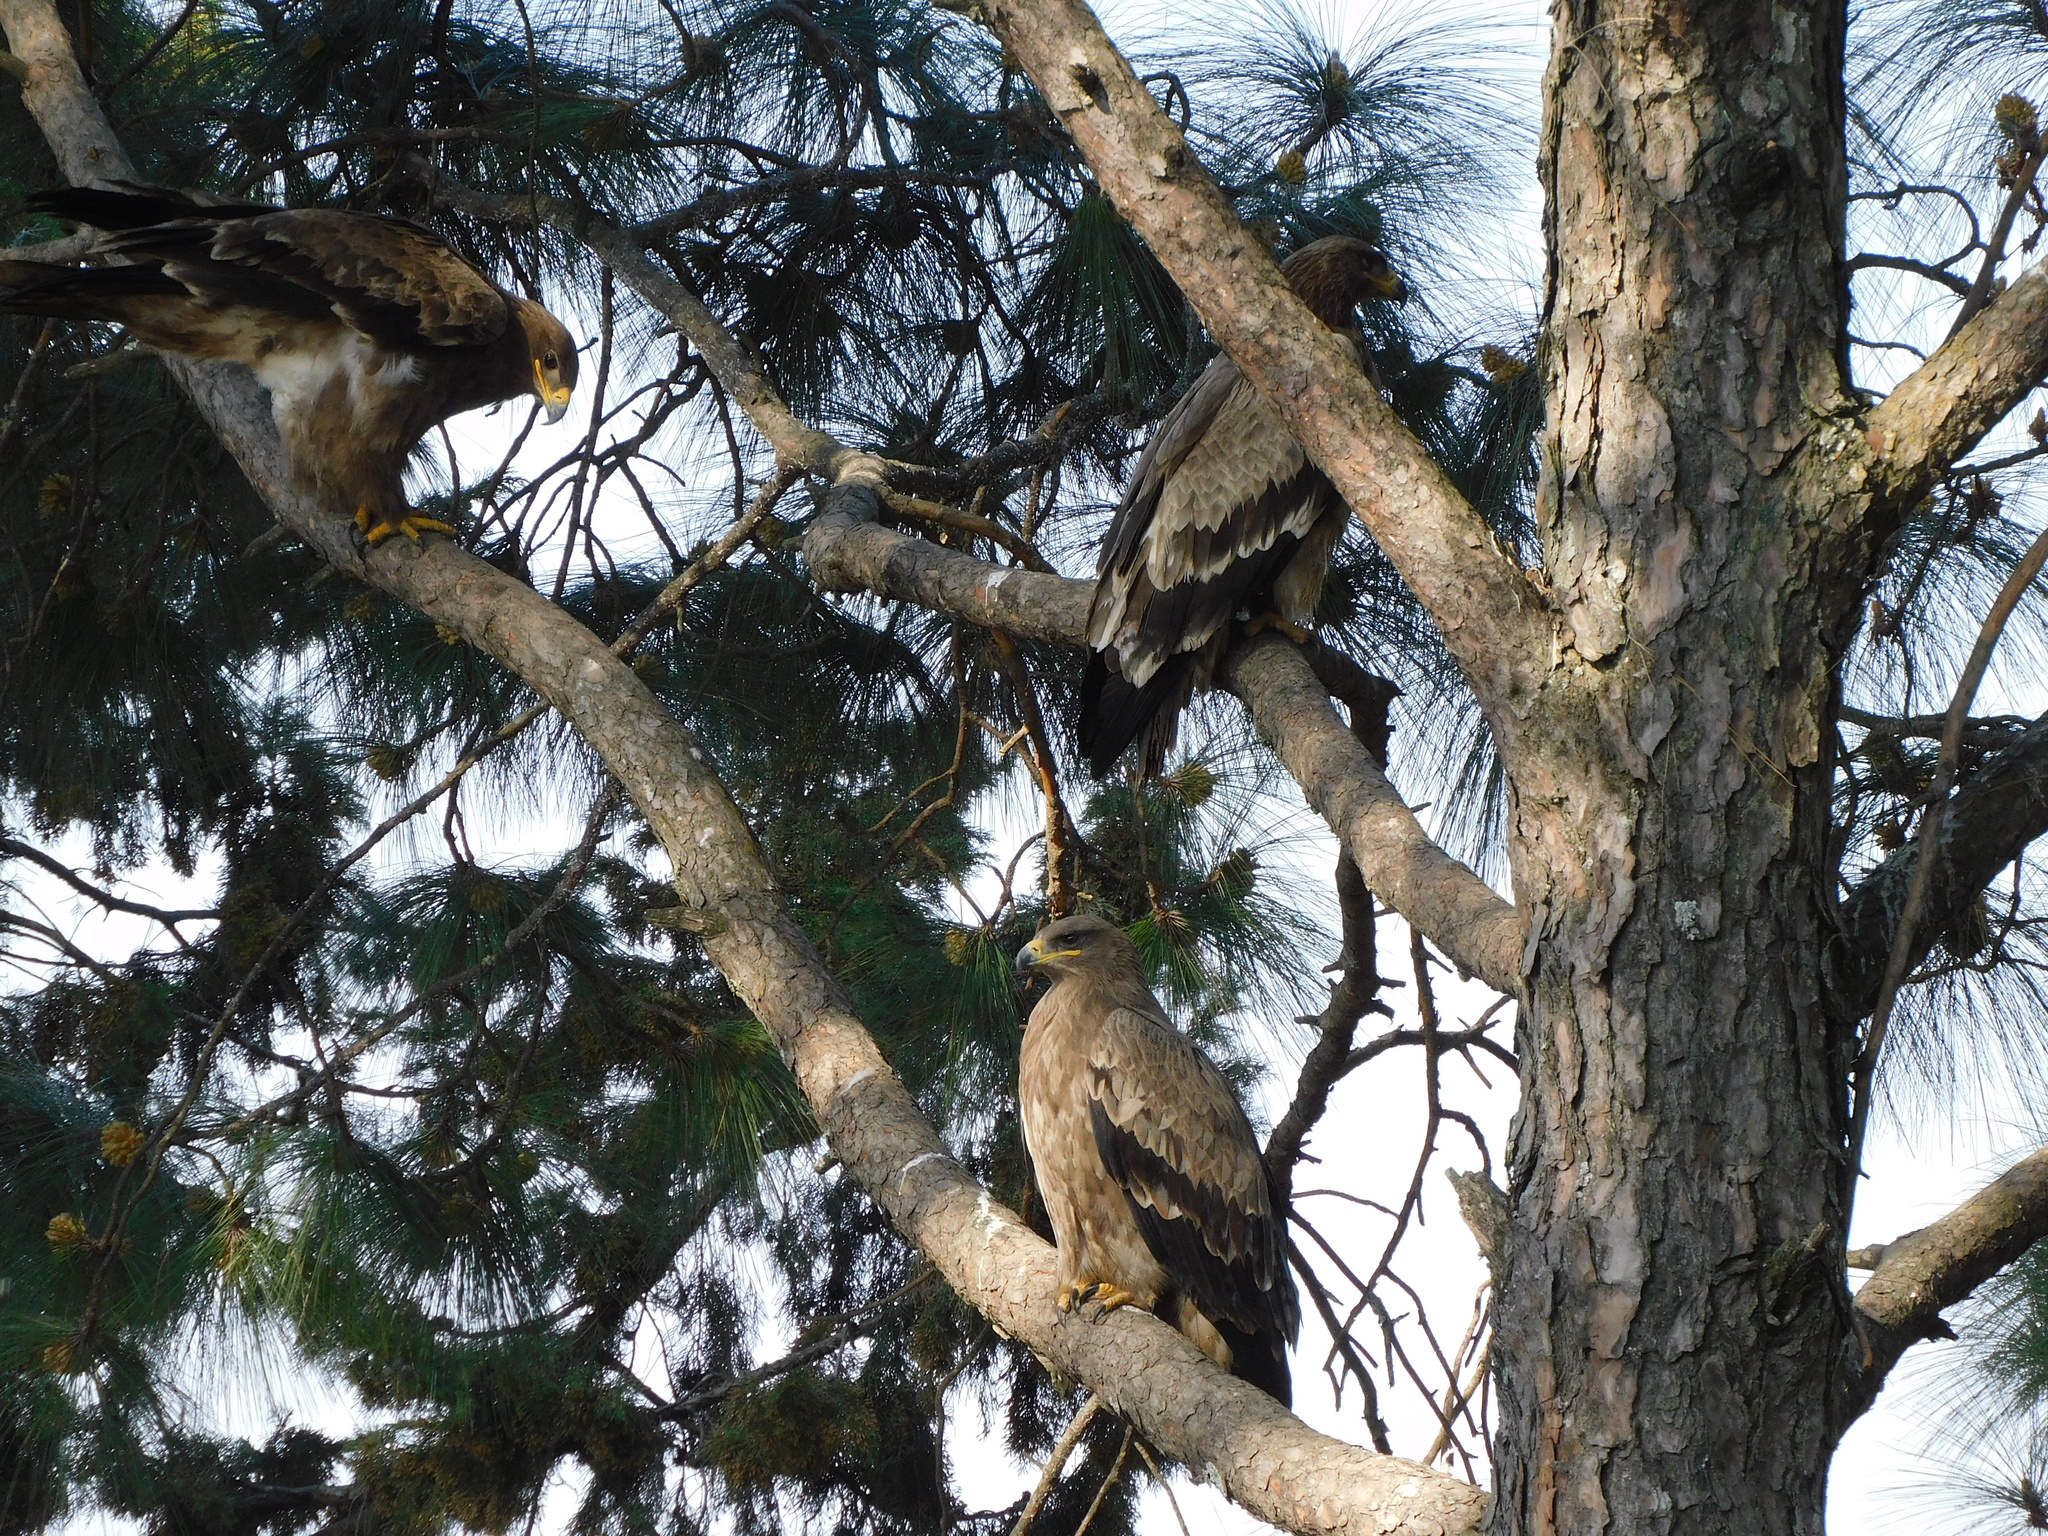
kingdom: Animalia
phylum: Chordata
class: Aves
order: Accipitriformes
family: Accipitridae
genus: Aquila
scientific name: Aquila nipalensis
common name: Steppe eagle
